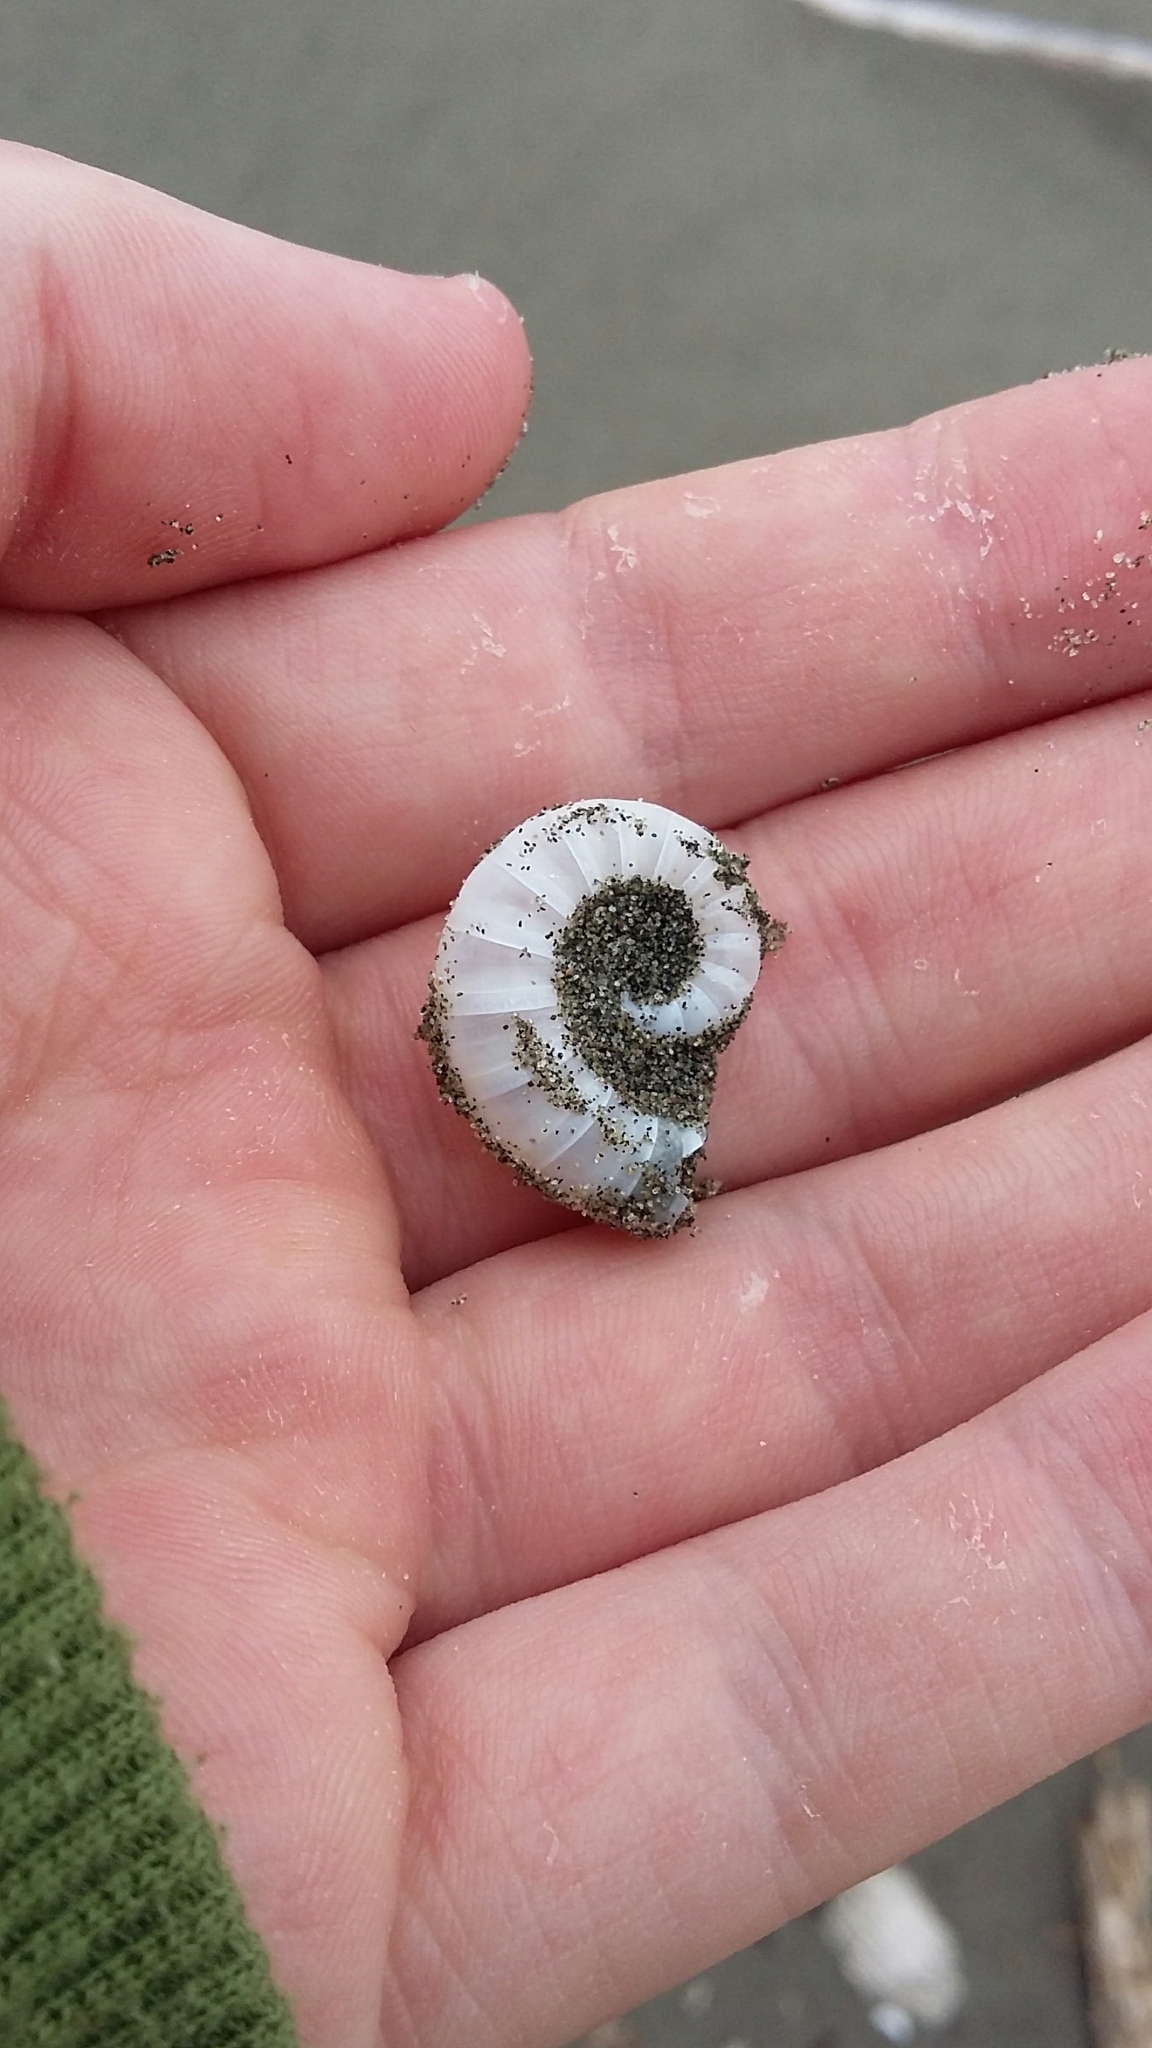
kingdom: Animalia
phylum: Mollusca
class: Cephalopoda
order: Spirulida
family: Spirulidae
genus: Spirula
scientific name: Spirula spirula
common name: Ram's horn squid
